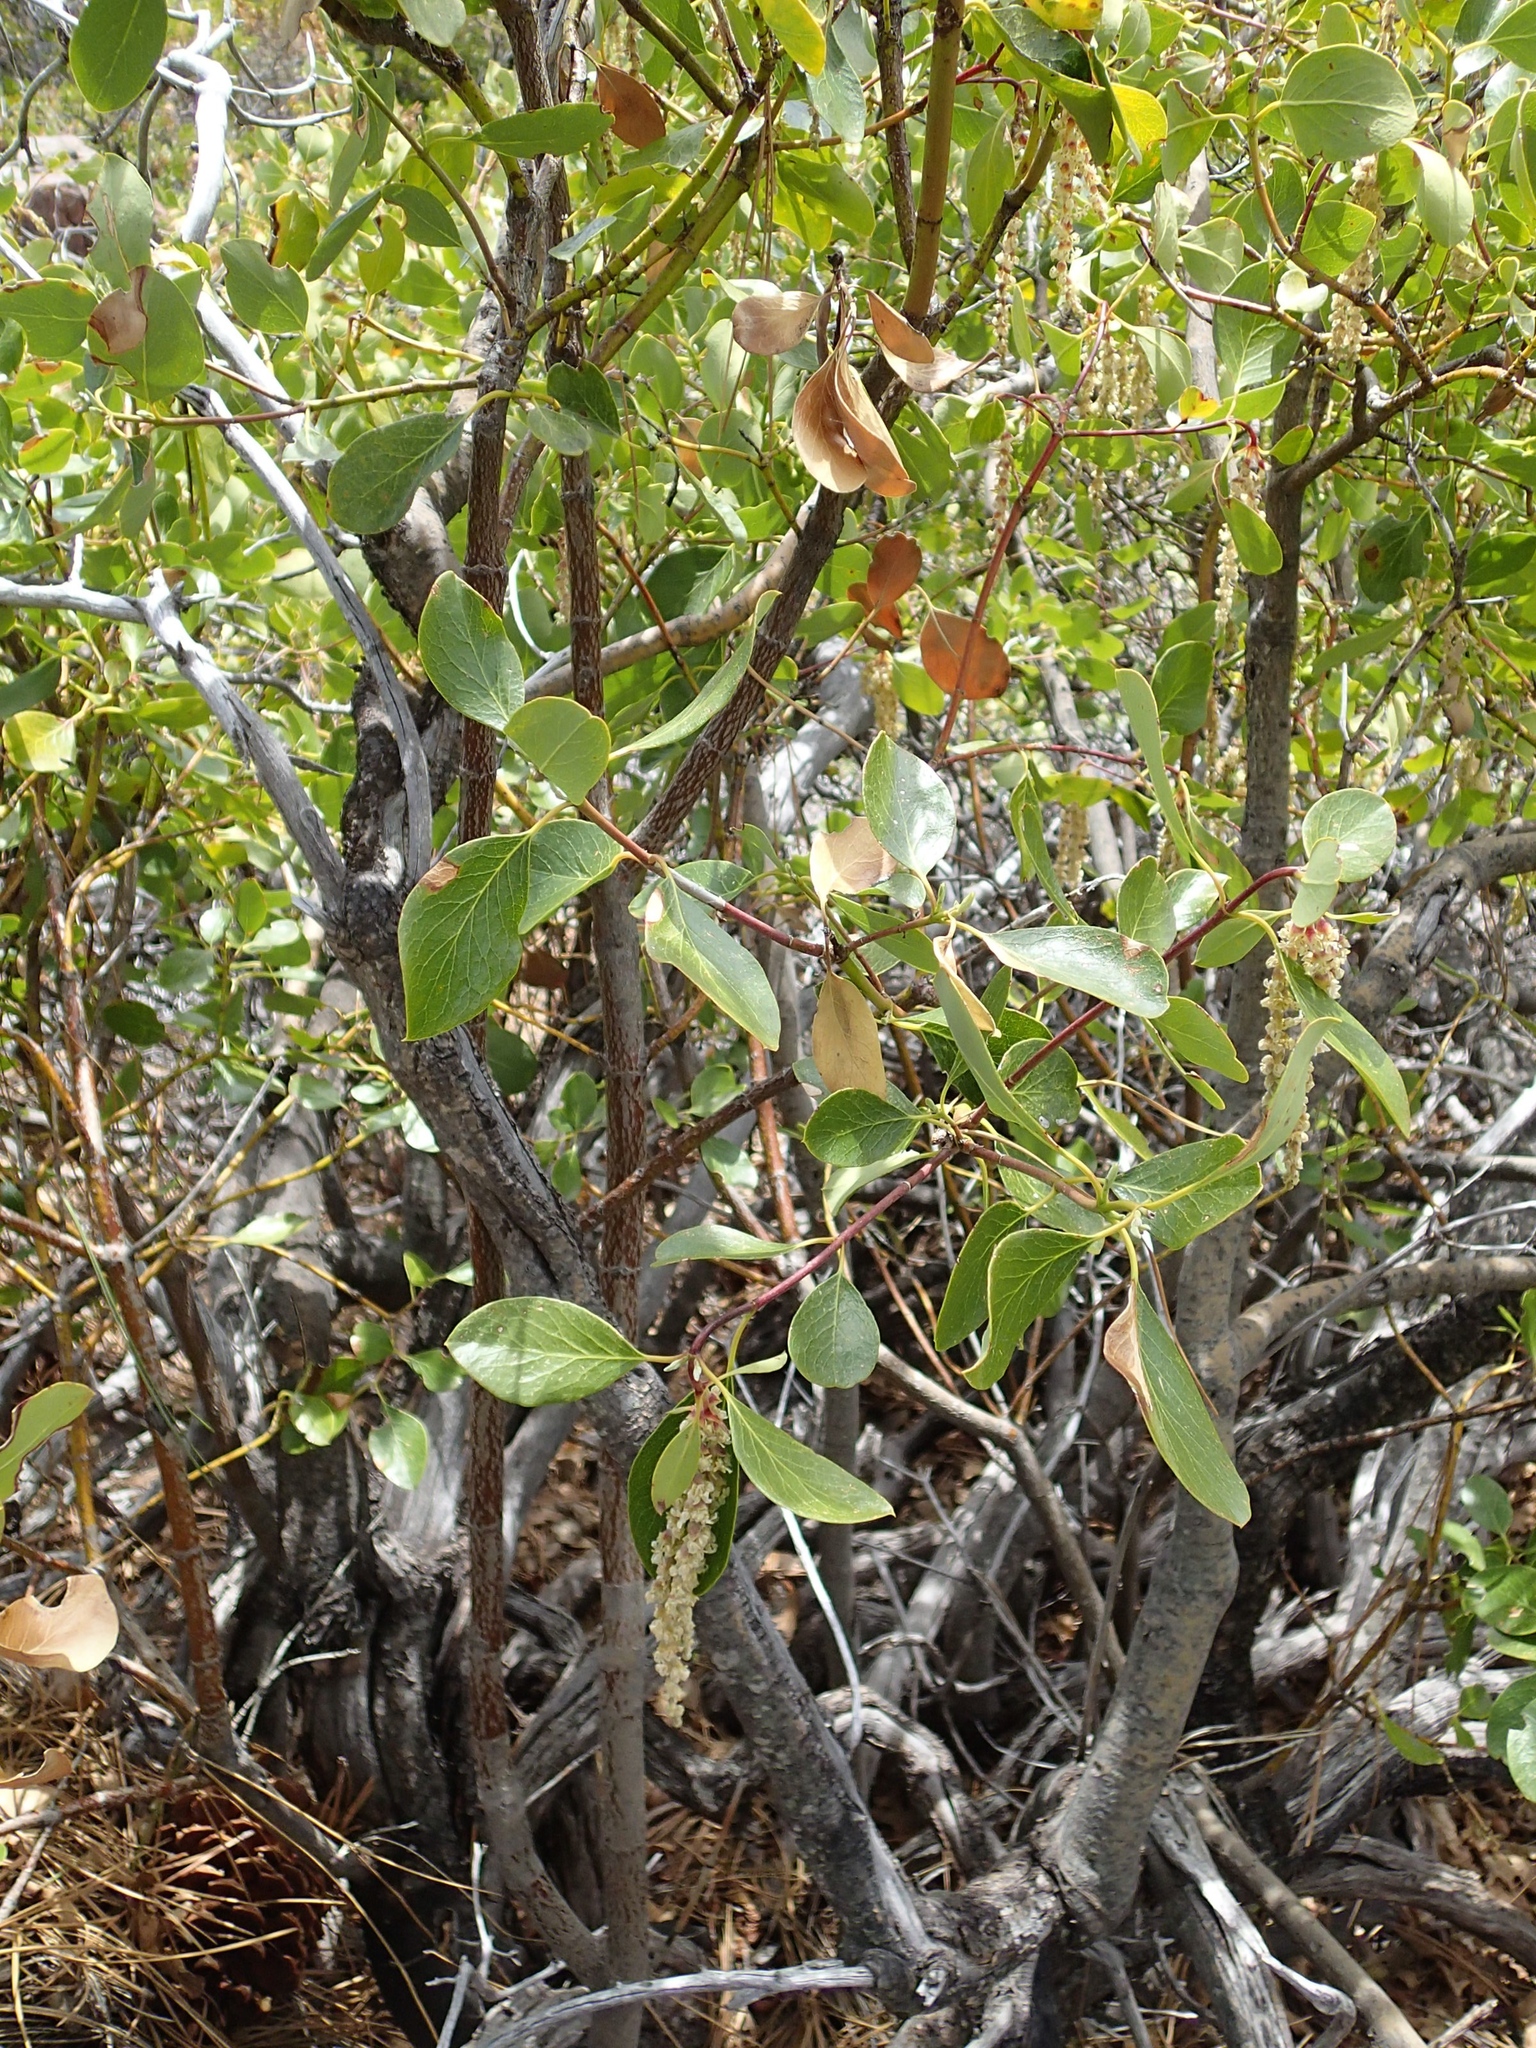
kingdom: Plantae
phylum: Tracheophyta
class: Magnoliopsida
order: Garryales
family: Garryaceae
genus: Garrya
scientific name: Garrya fremontii
